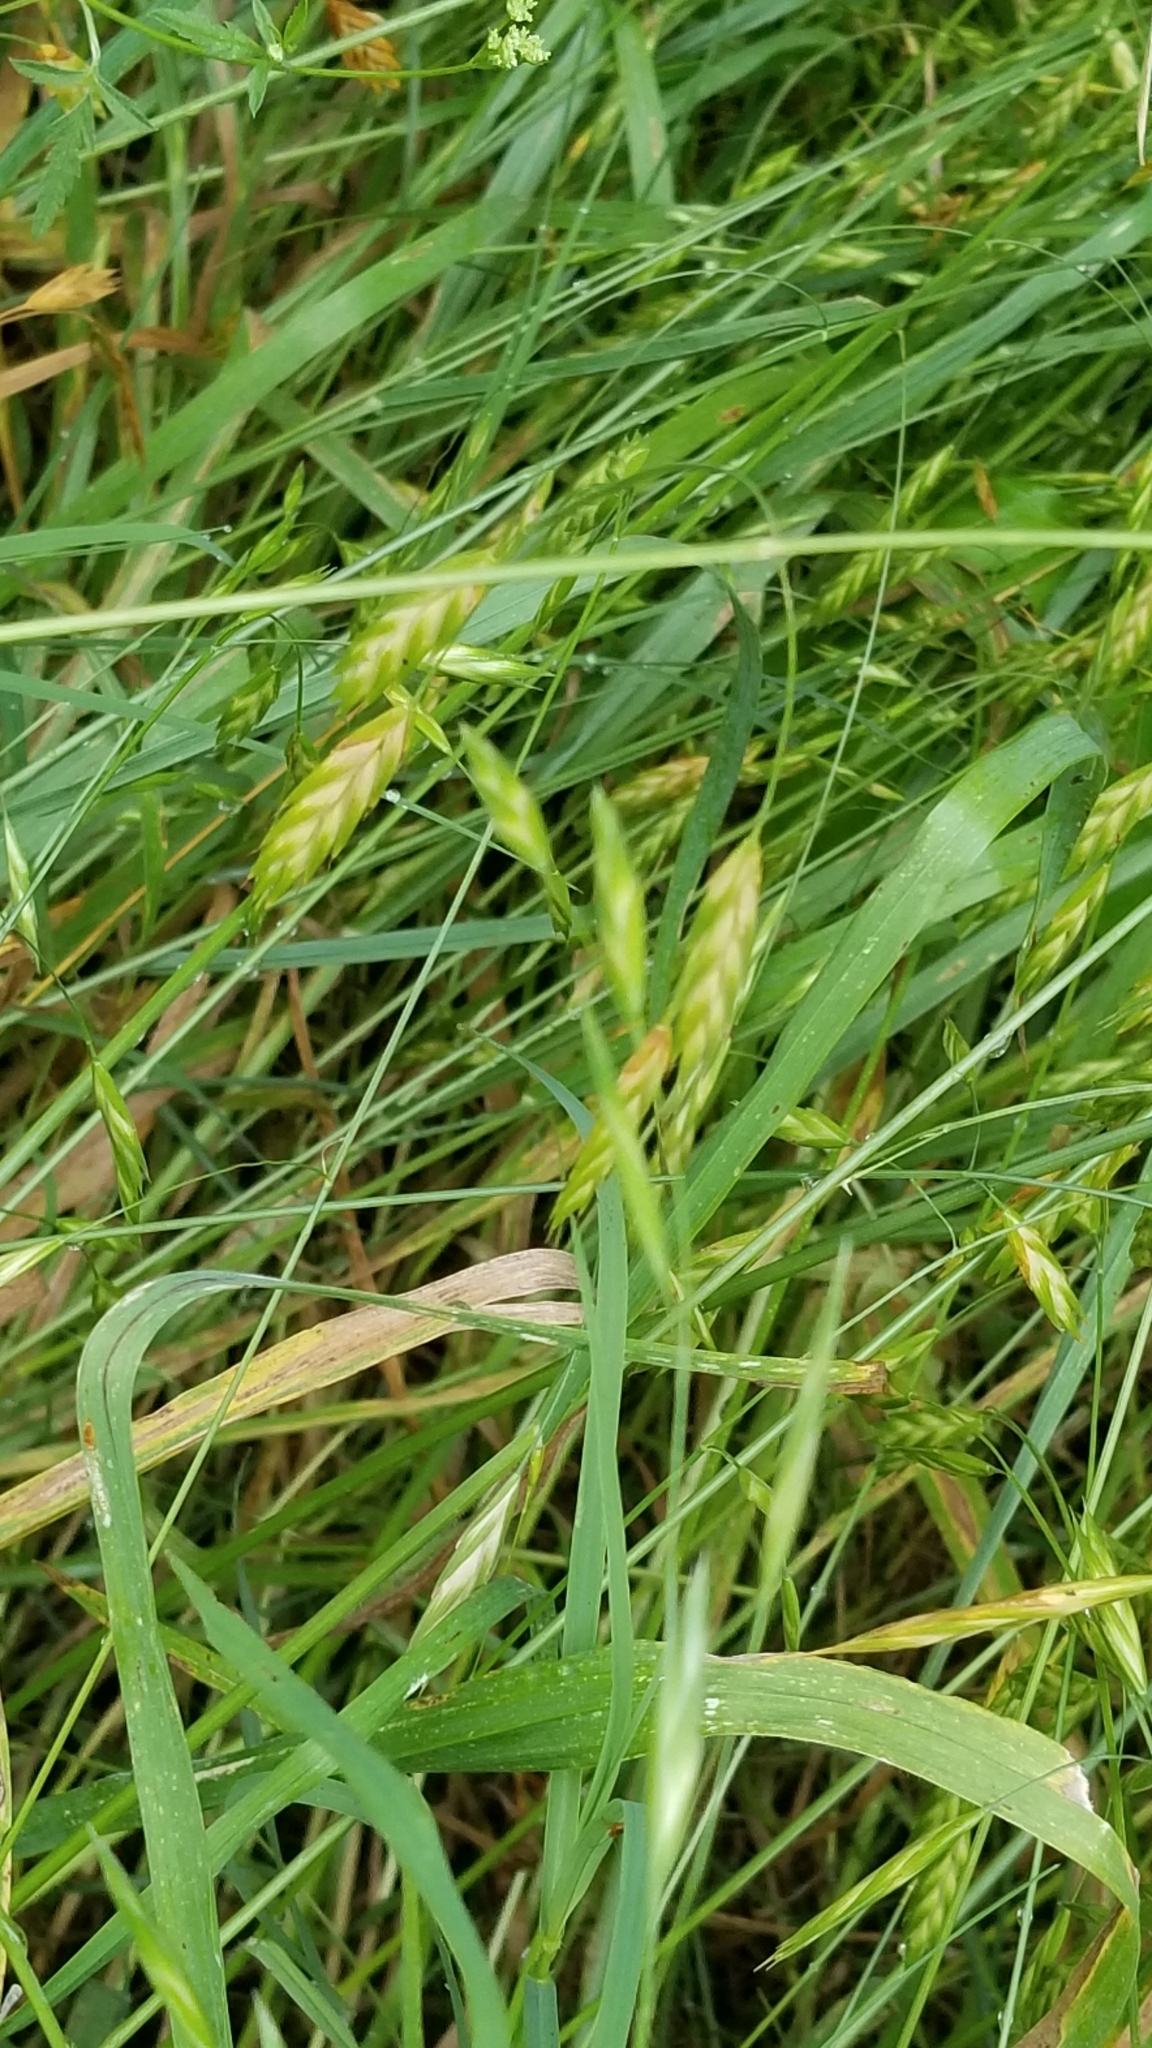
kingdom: Plantae
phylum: Tracheophyta
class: Liliopsida
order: Poales
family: Poaceae
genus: Bromus
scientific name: Bromus catharticus
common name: Rescuegrass
